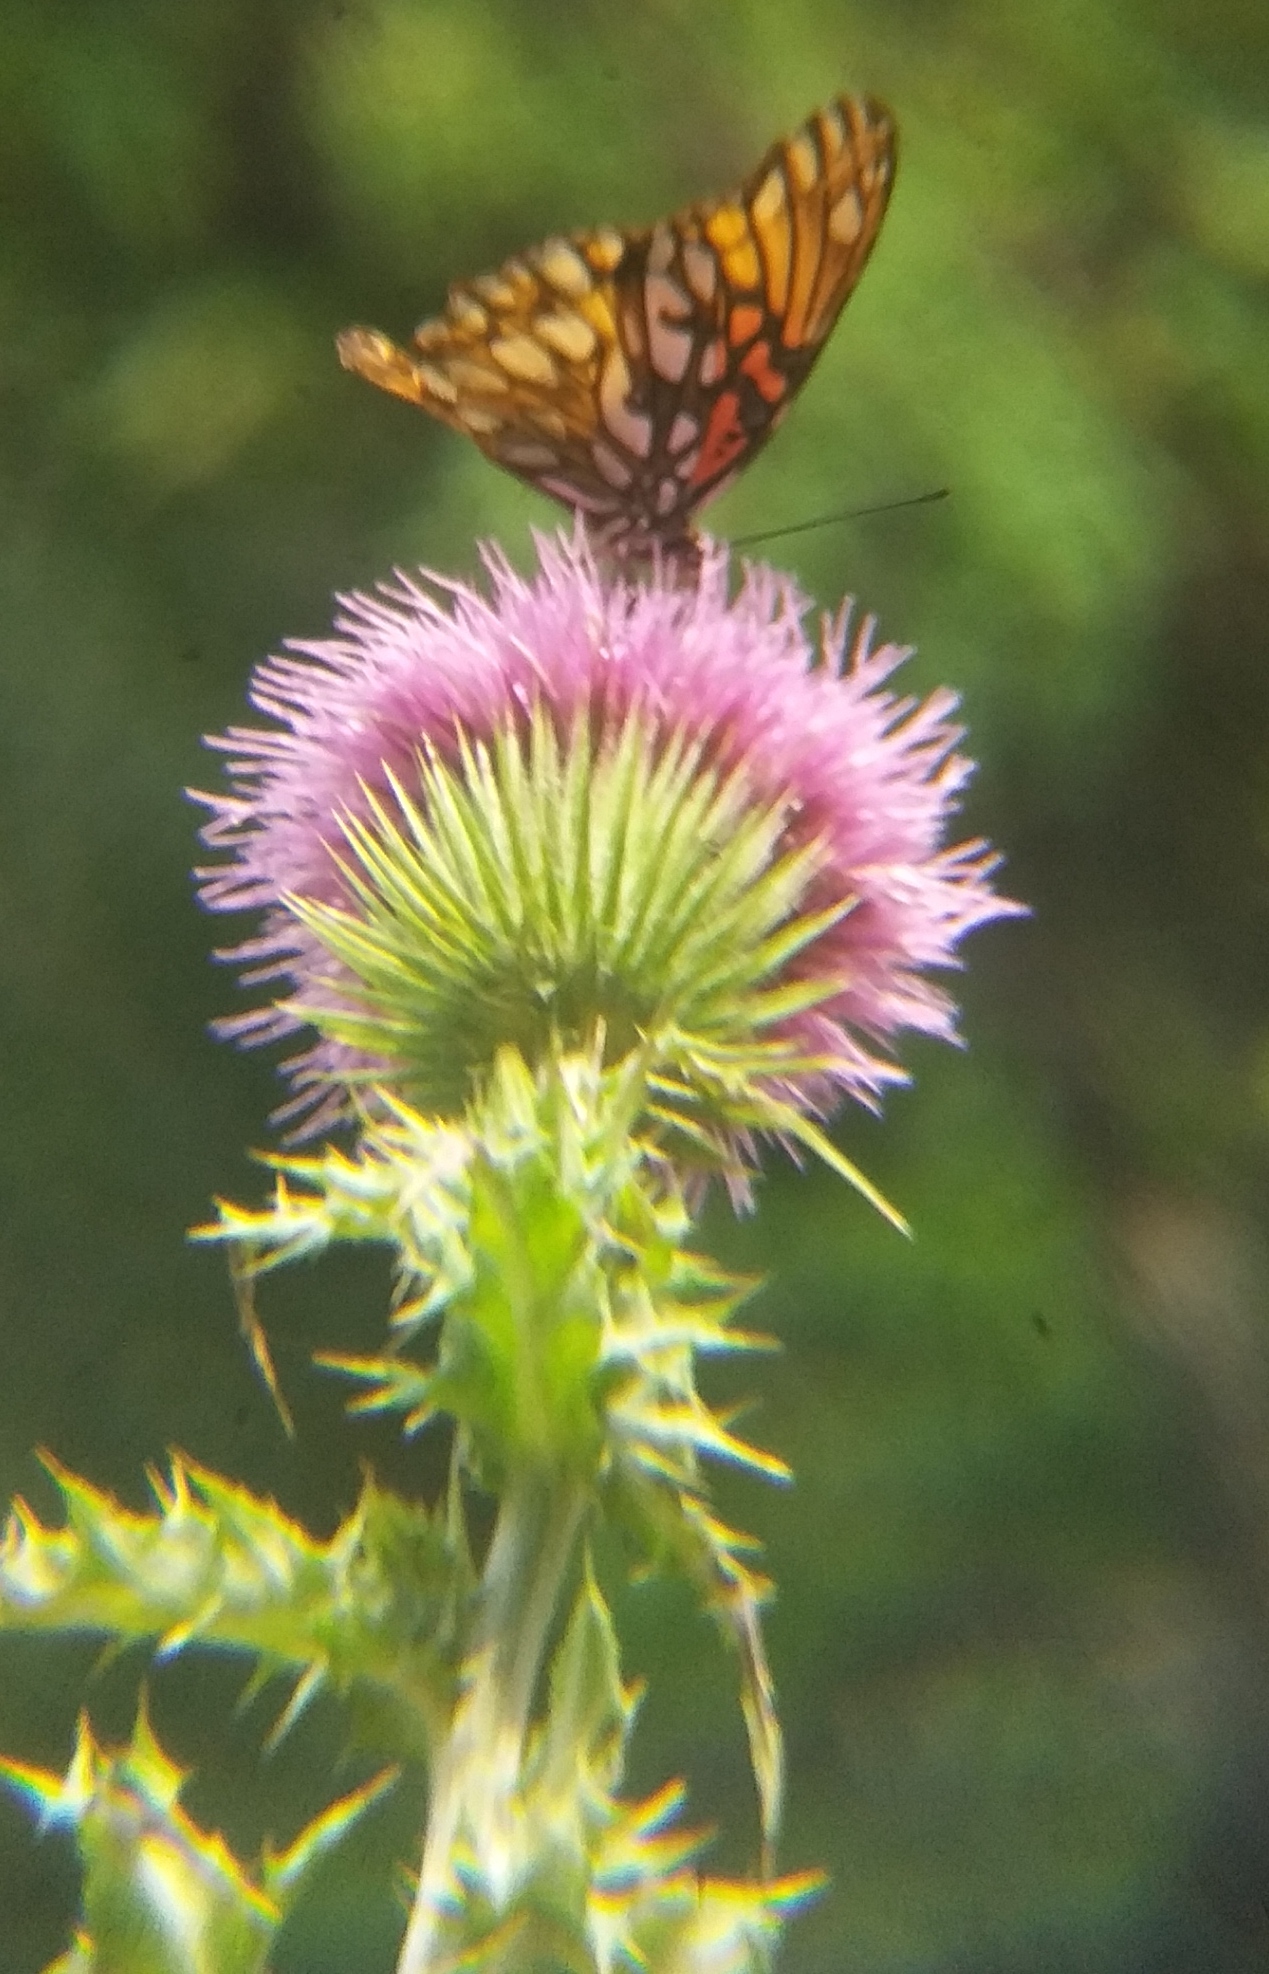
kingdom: Animalia
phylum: Arthropoda
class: Insecta
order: Lepidoptera
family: Nymphalidae
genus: Dione
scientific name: Dione moneta
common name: Mexican silverspot
